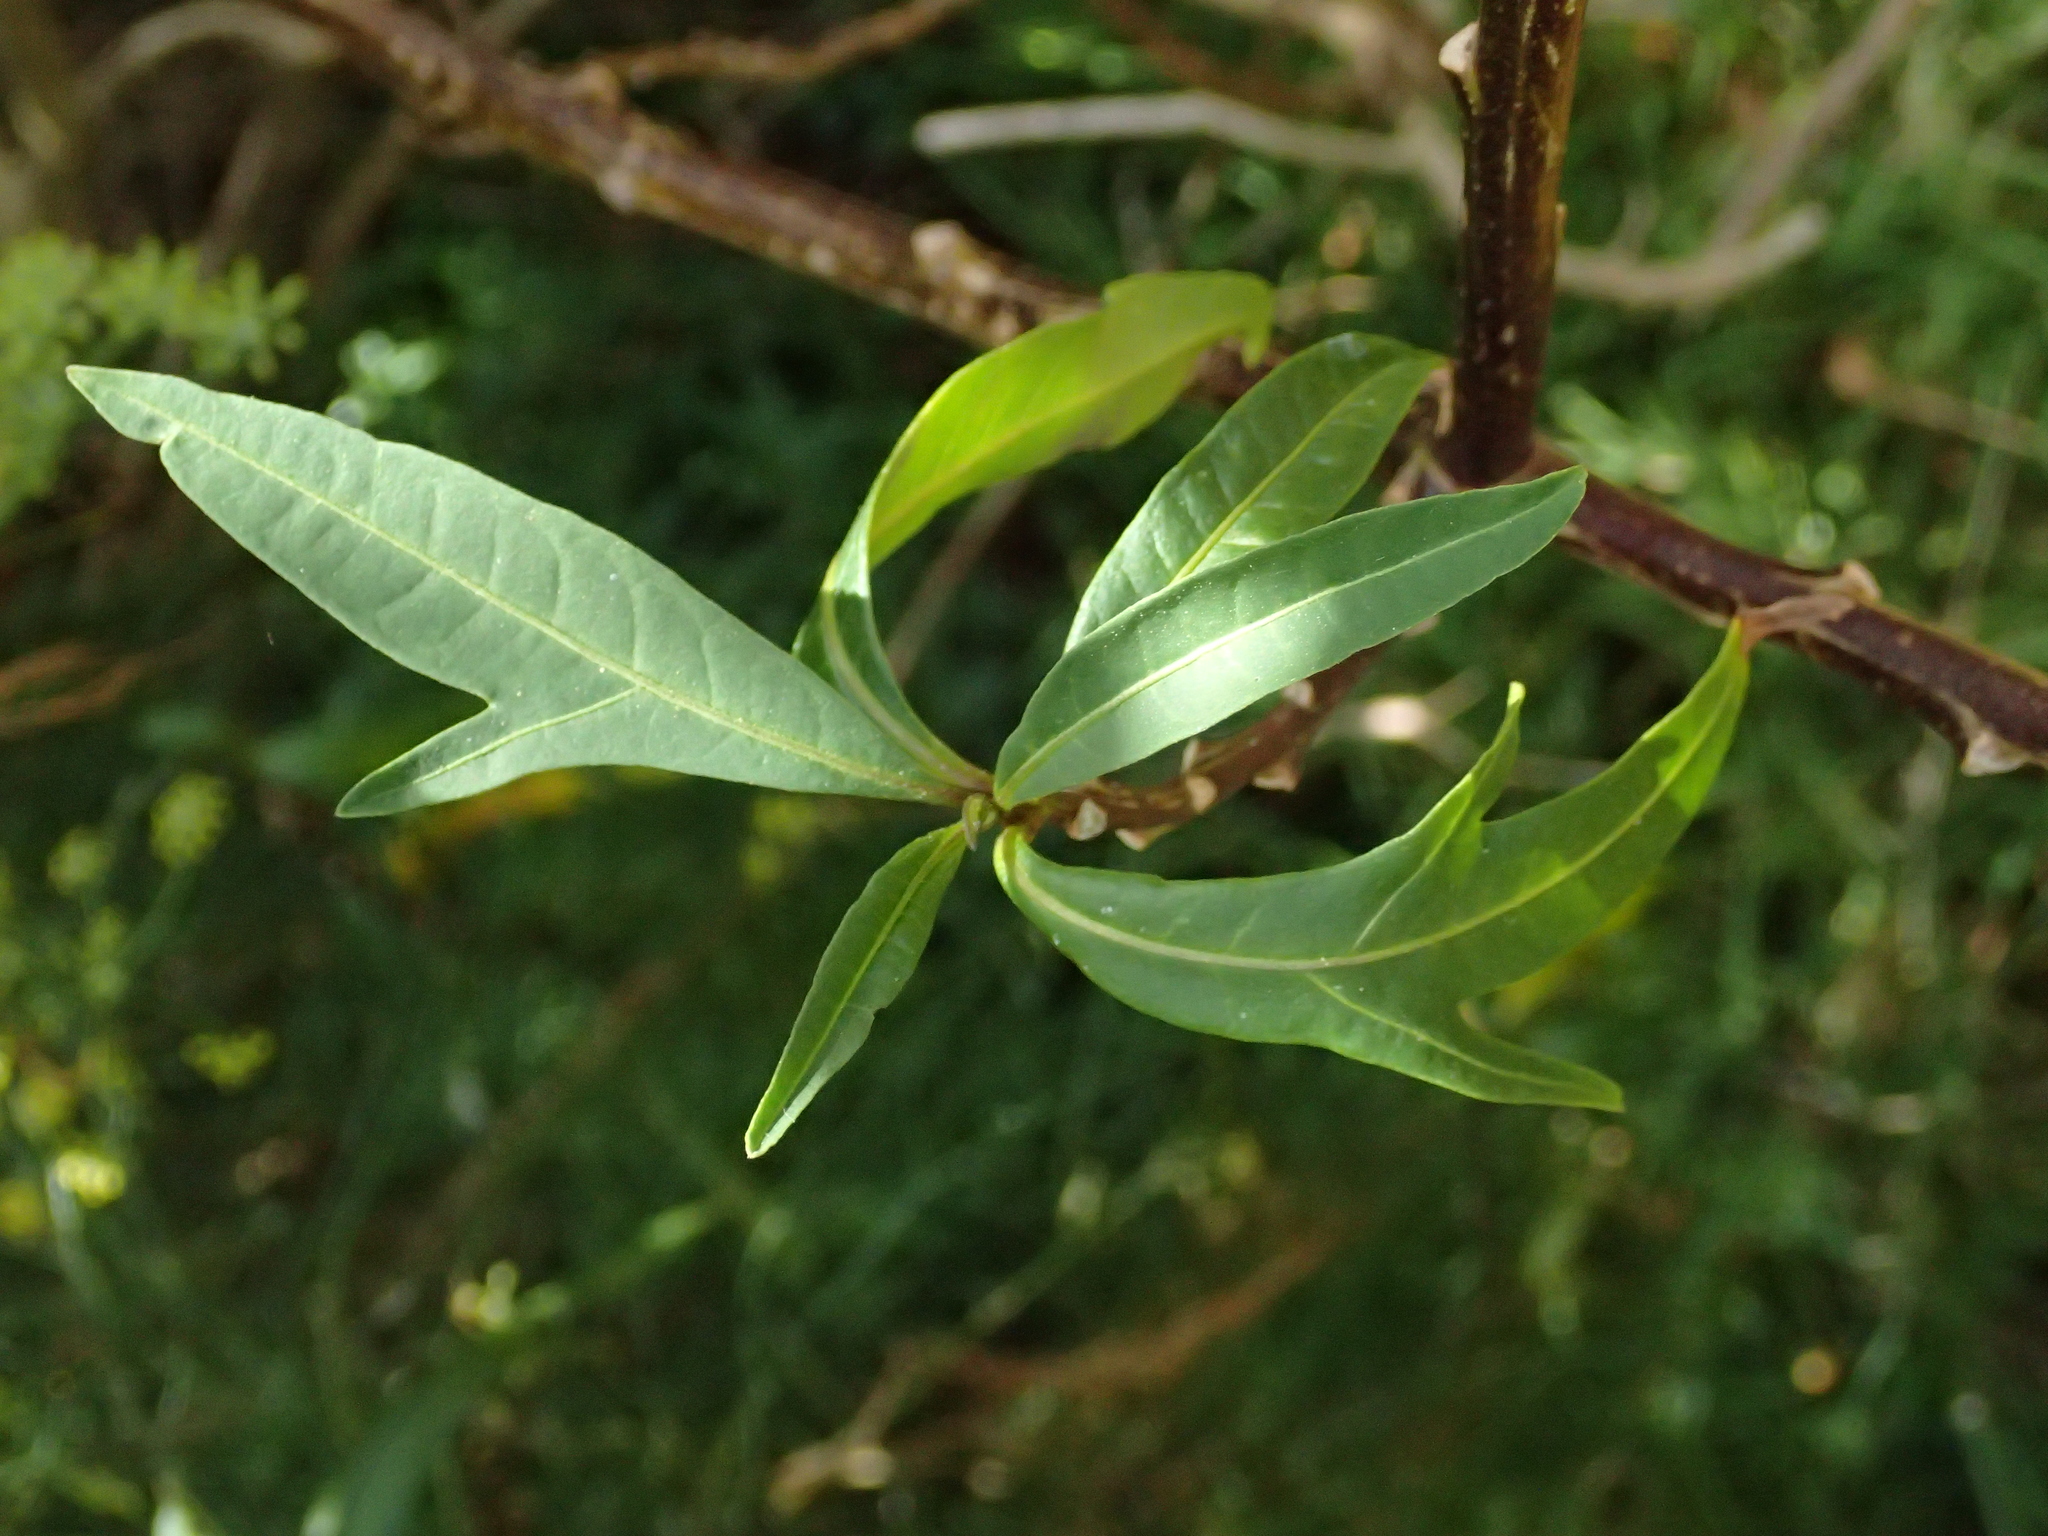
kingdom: Plantae
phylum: Tracheophyta
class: Magnoliopsida
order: Solanales
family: Solanaceae
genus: Solanum
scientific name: Solanum laciniatum
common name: Kangaroo-apple
